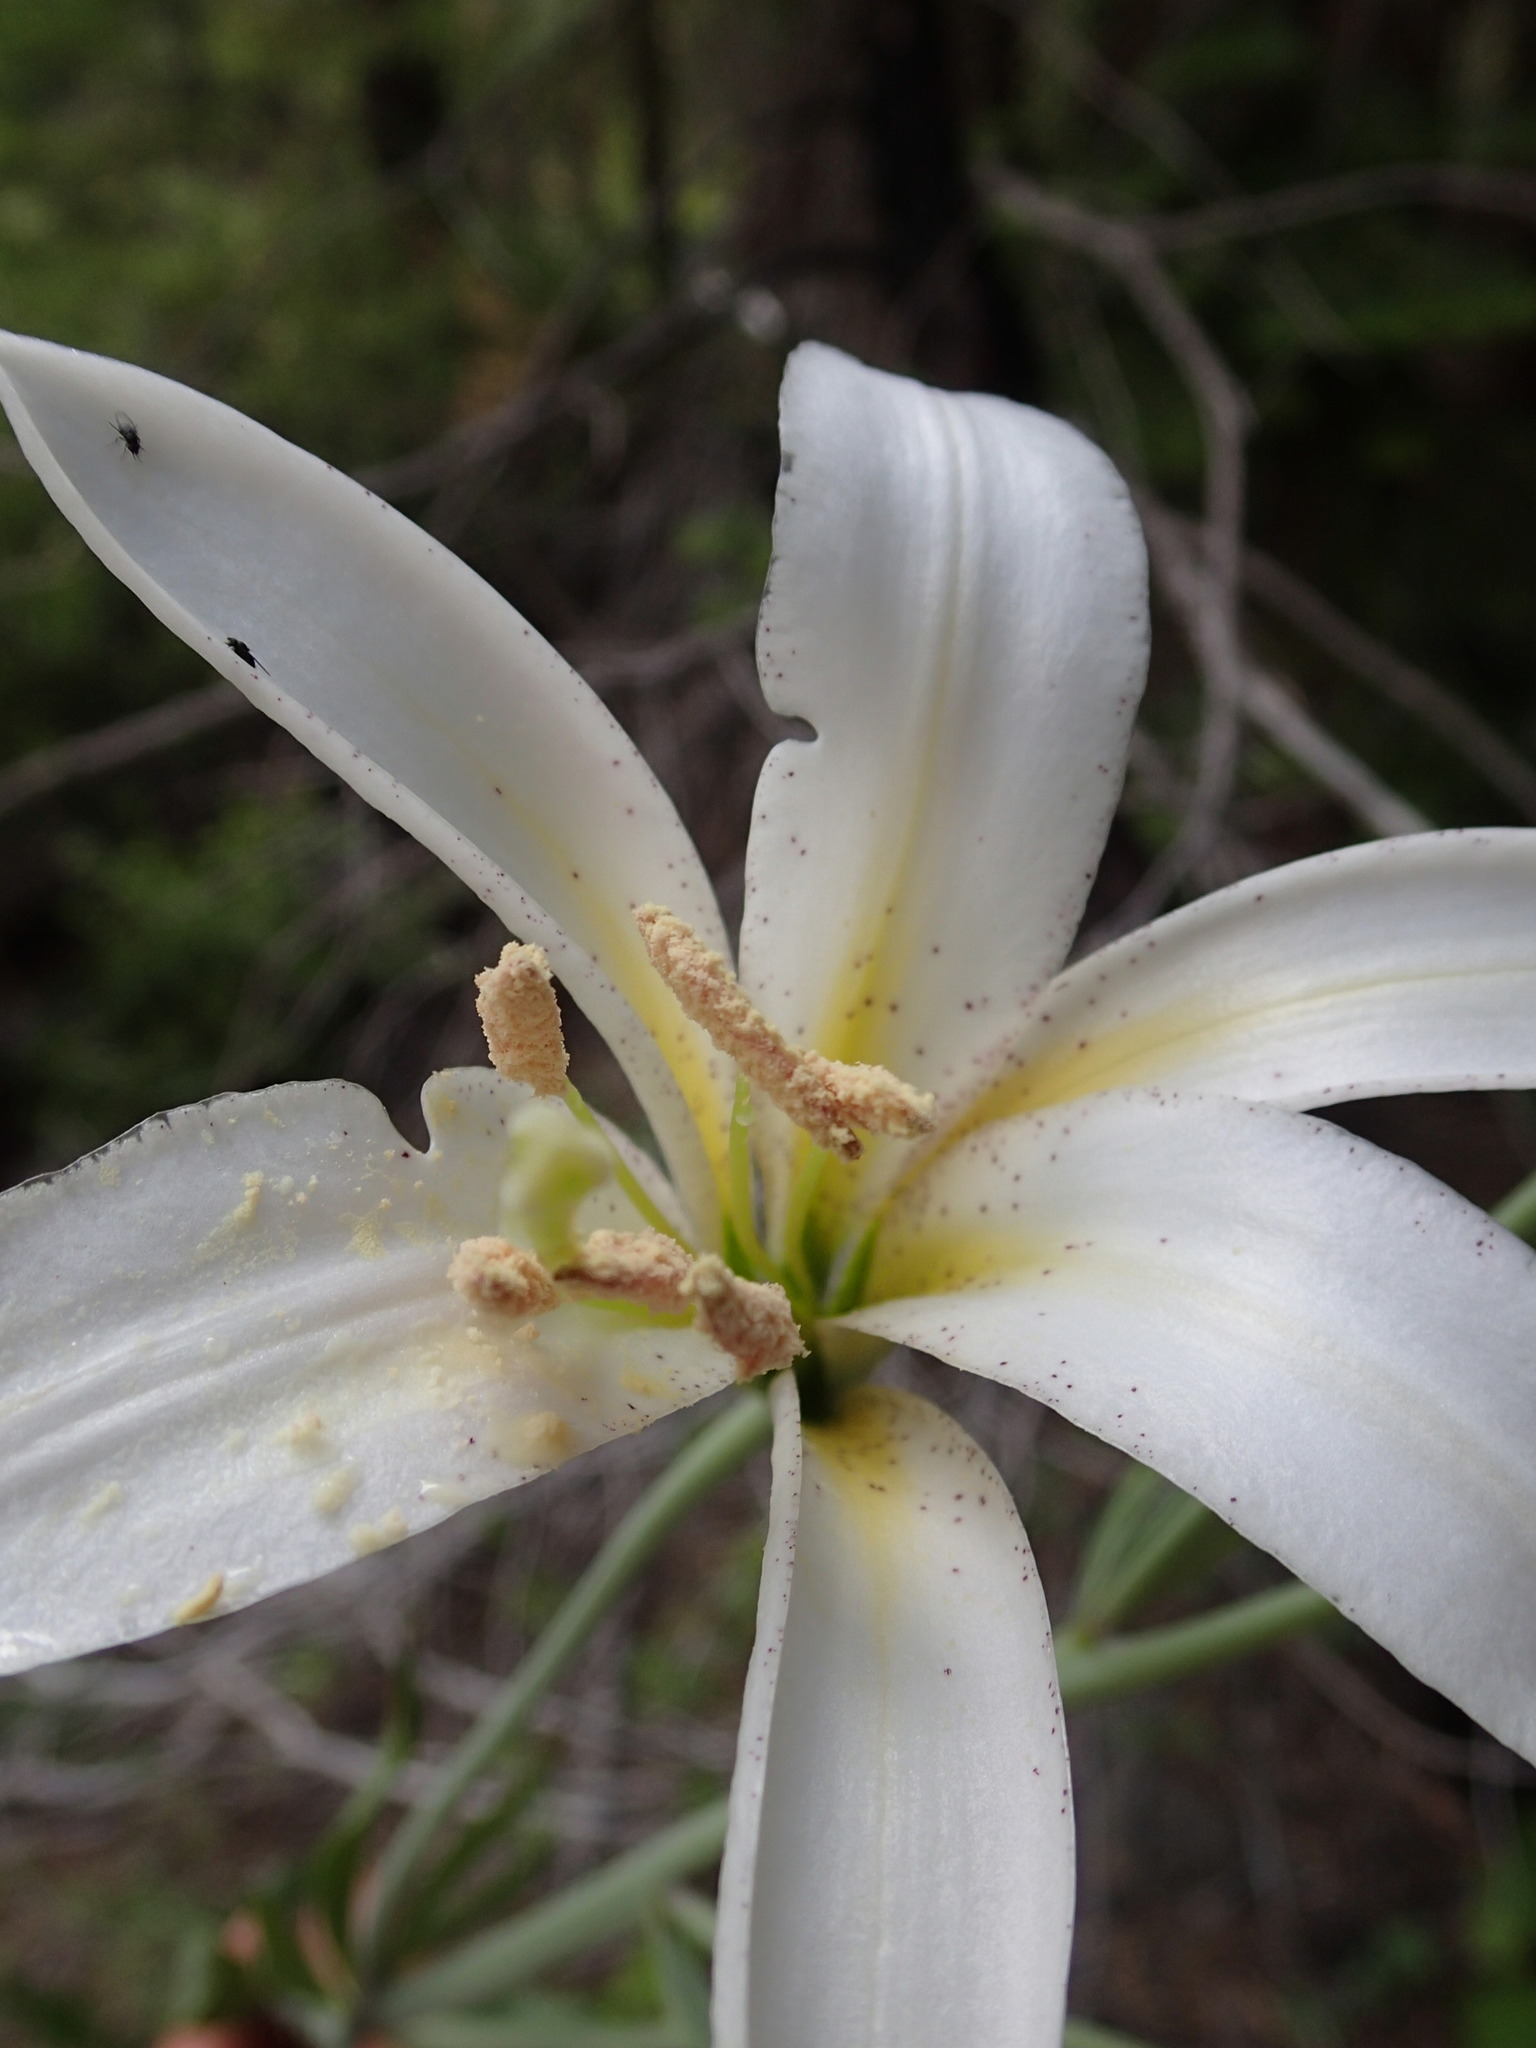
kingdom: Plantae
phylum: Tracheophyta
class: Liliopsida
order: Liliales
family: Liliaceae
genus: Lilium
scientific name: Lilium washingtonianum
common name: Washington lily
